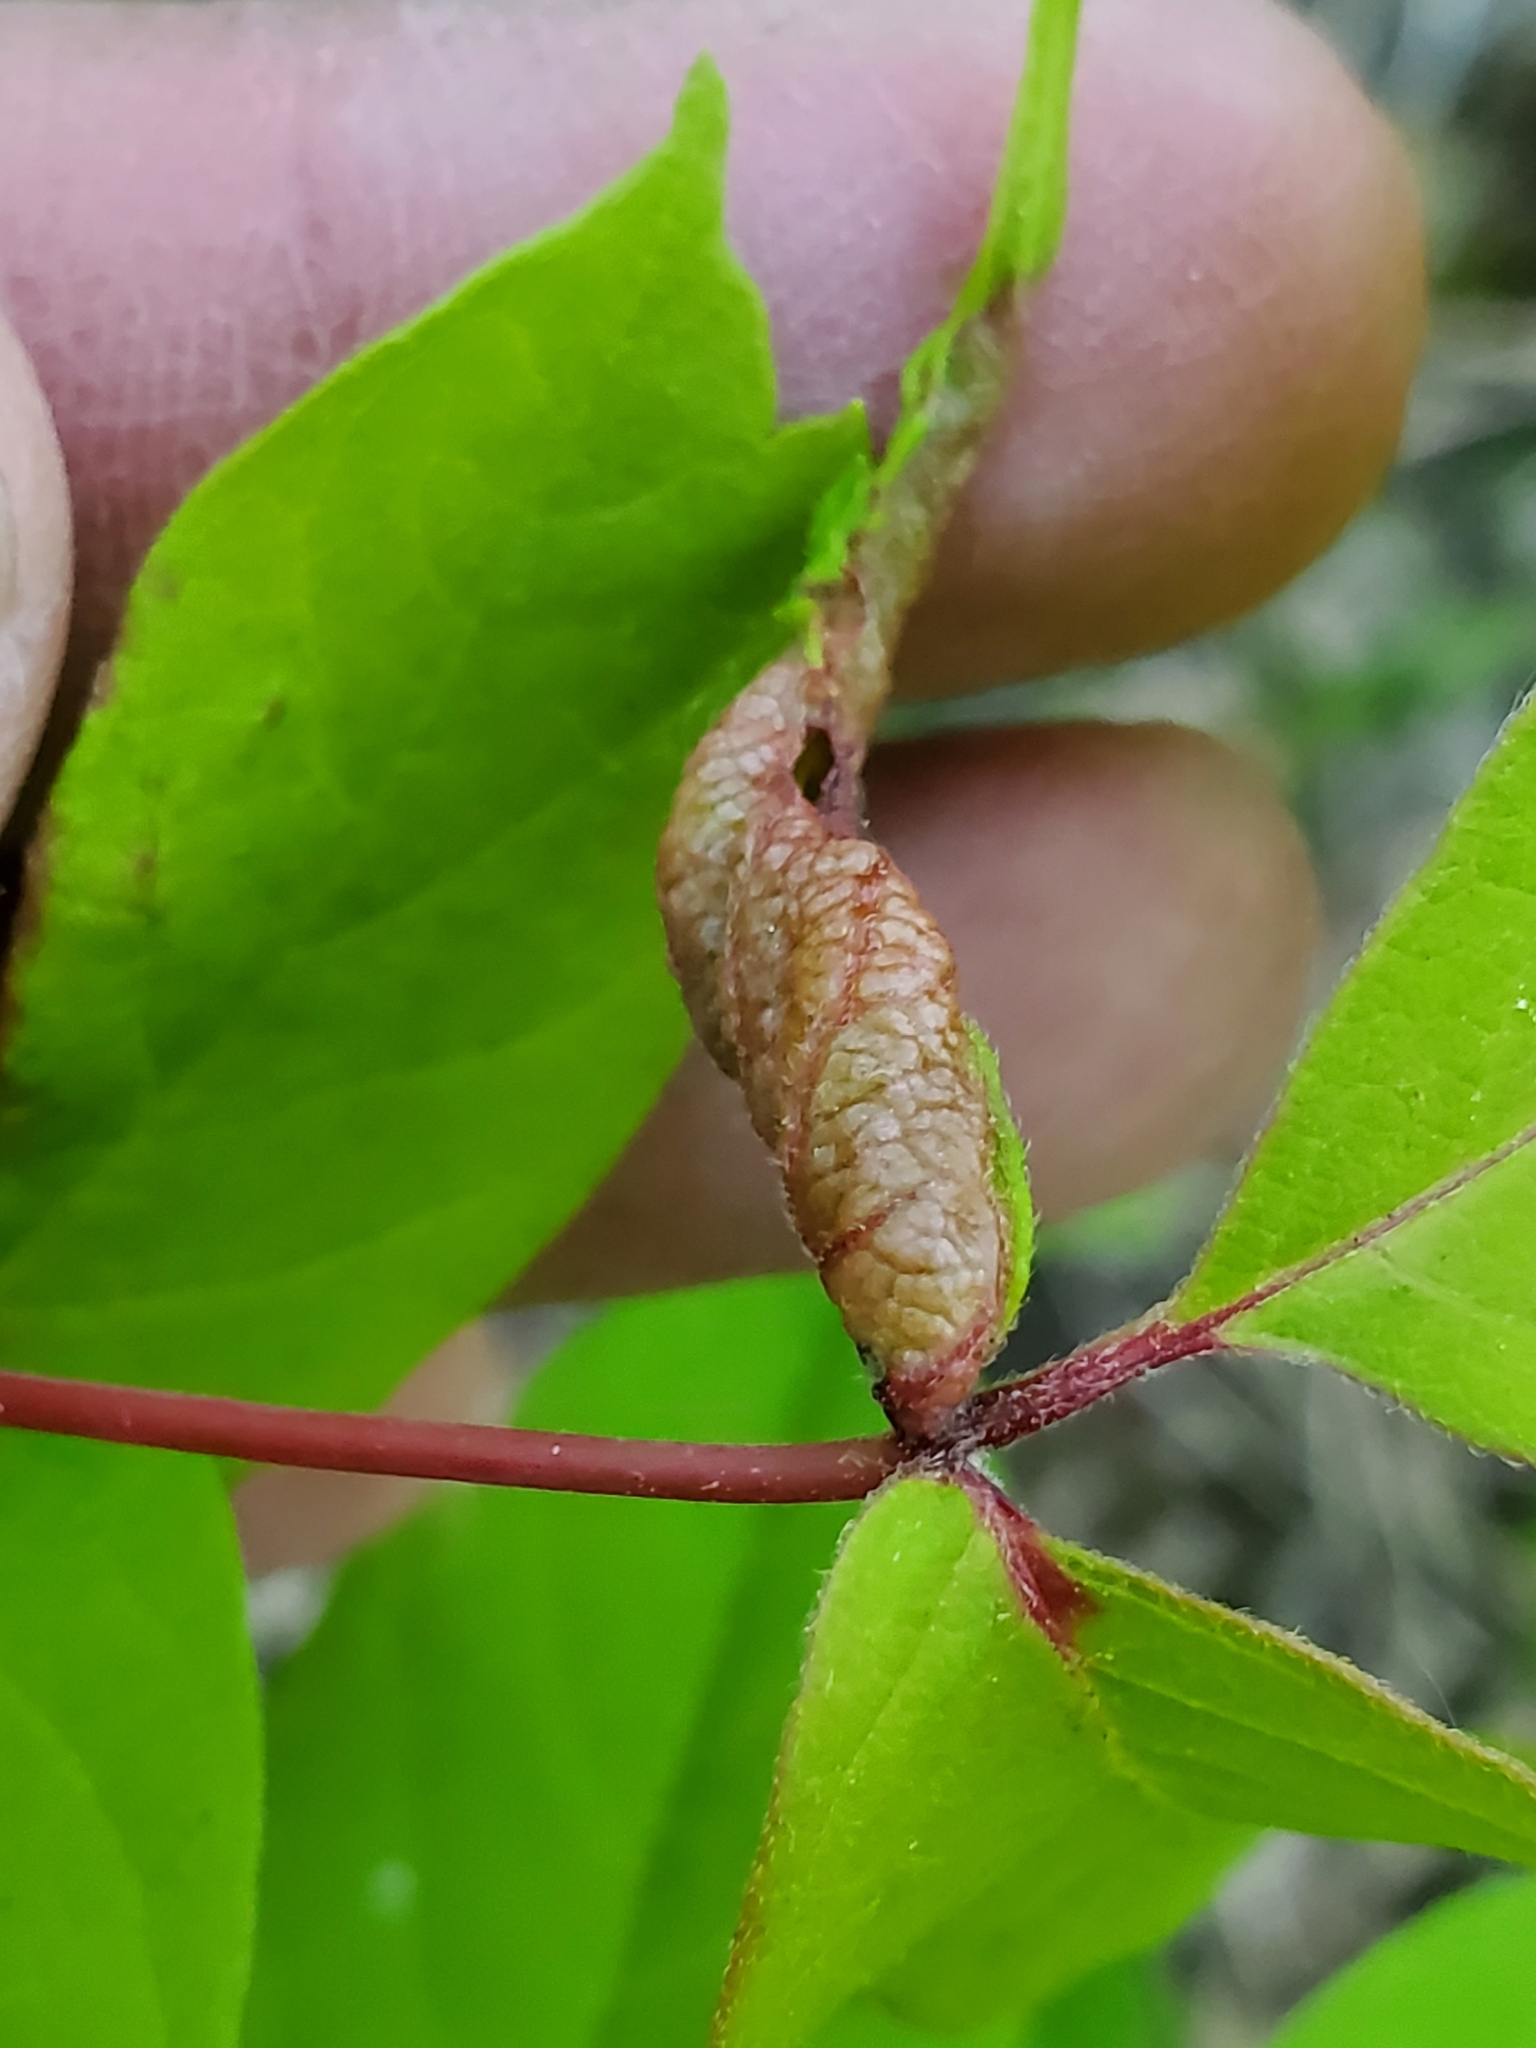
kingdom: Animalia
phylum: Arthropoda
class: Insecta
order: Diptera
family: Cecidomyiidae
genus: Contarinia
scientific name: Contarinia negundinis
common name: Boxelder budgall midge
